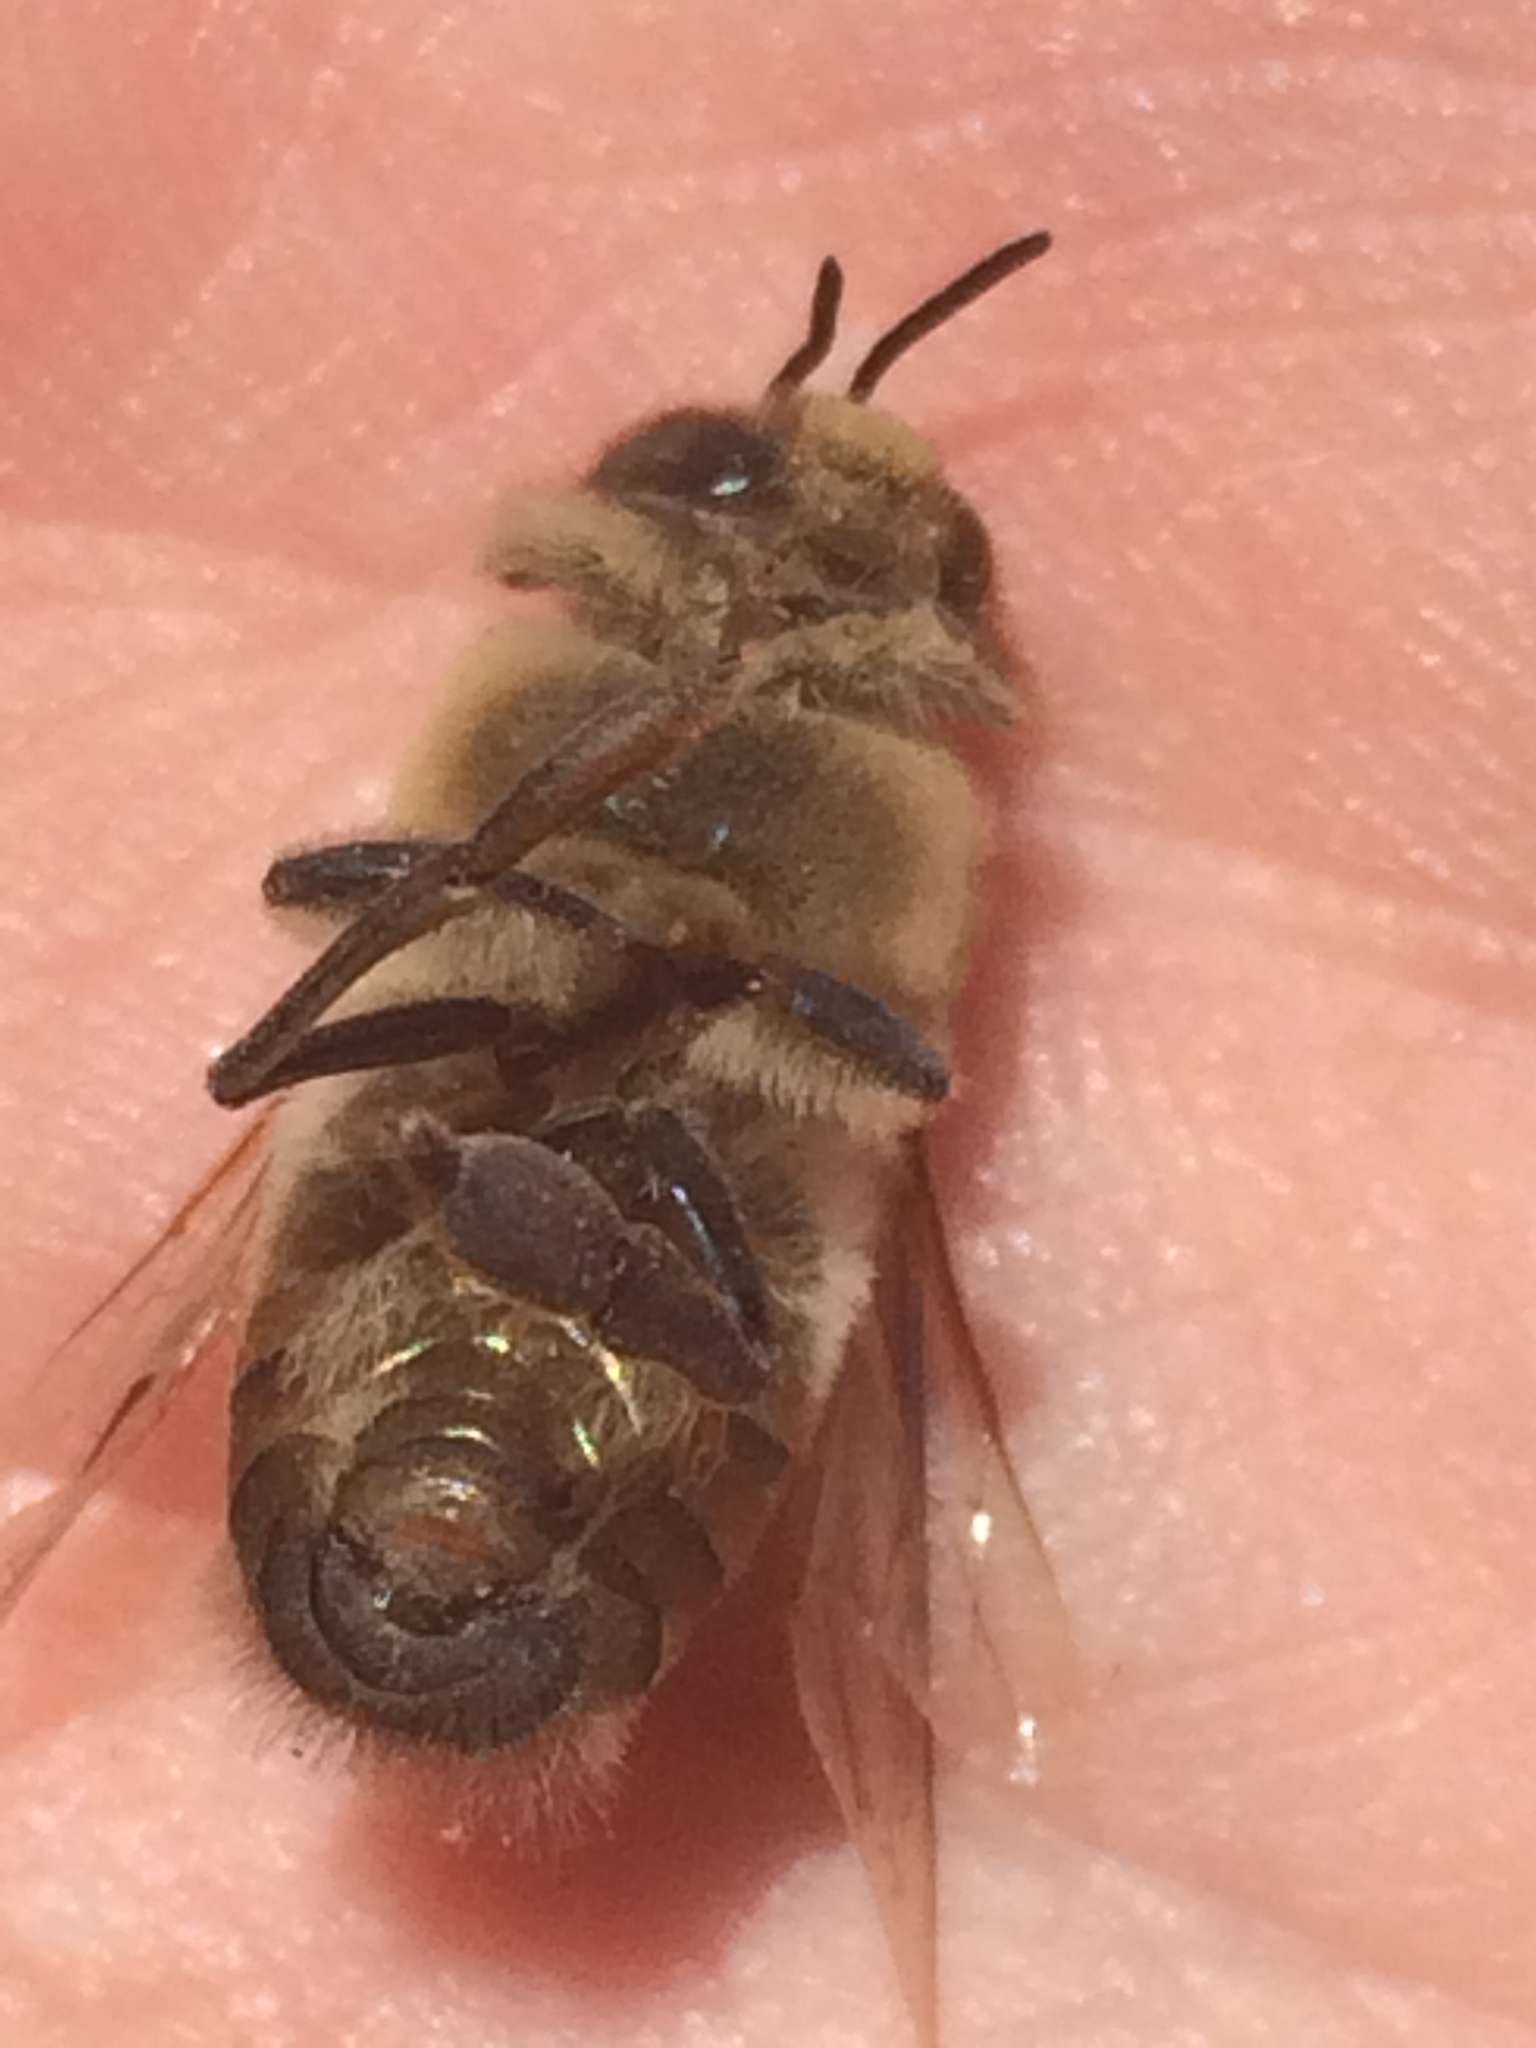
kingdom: Animalia
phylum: Arthropoda
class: Insecta
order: Hymenoptera
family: Apidae
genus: Apis
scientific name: Apis mellifera
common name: Honey bee
